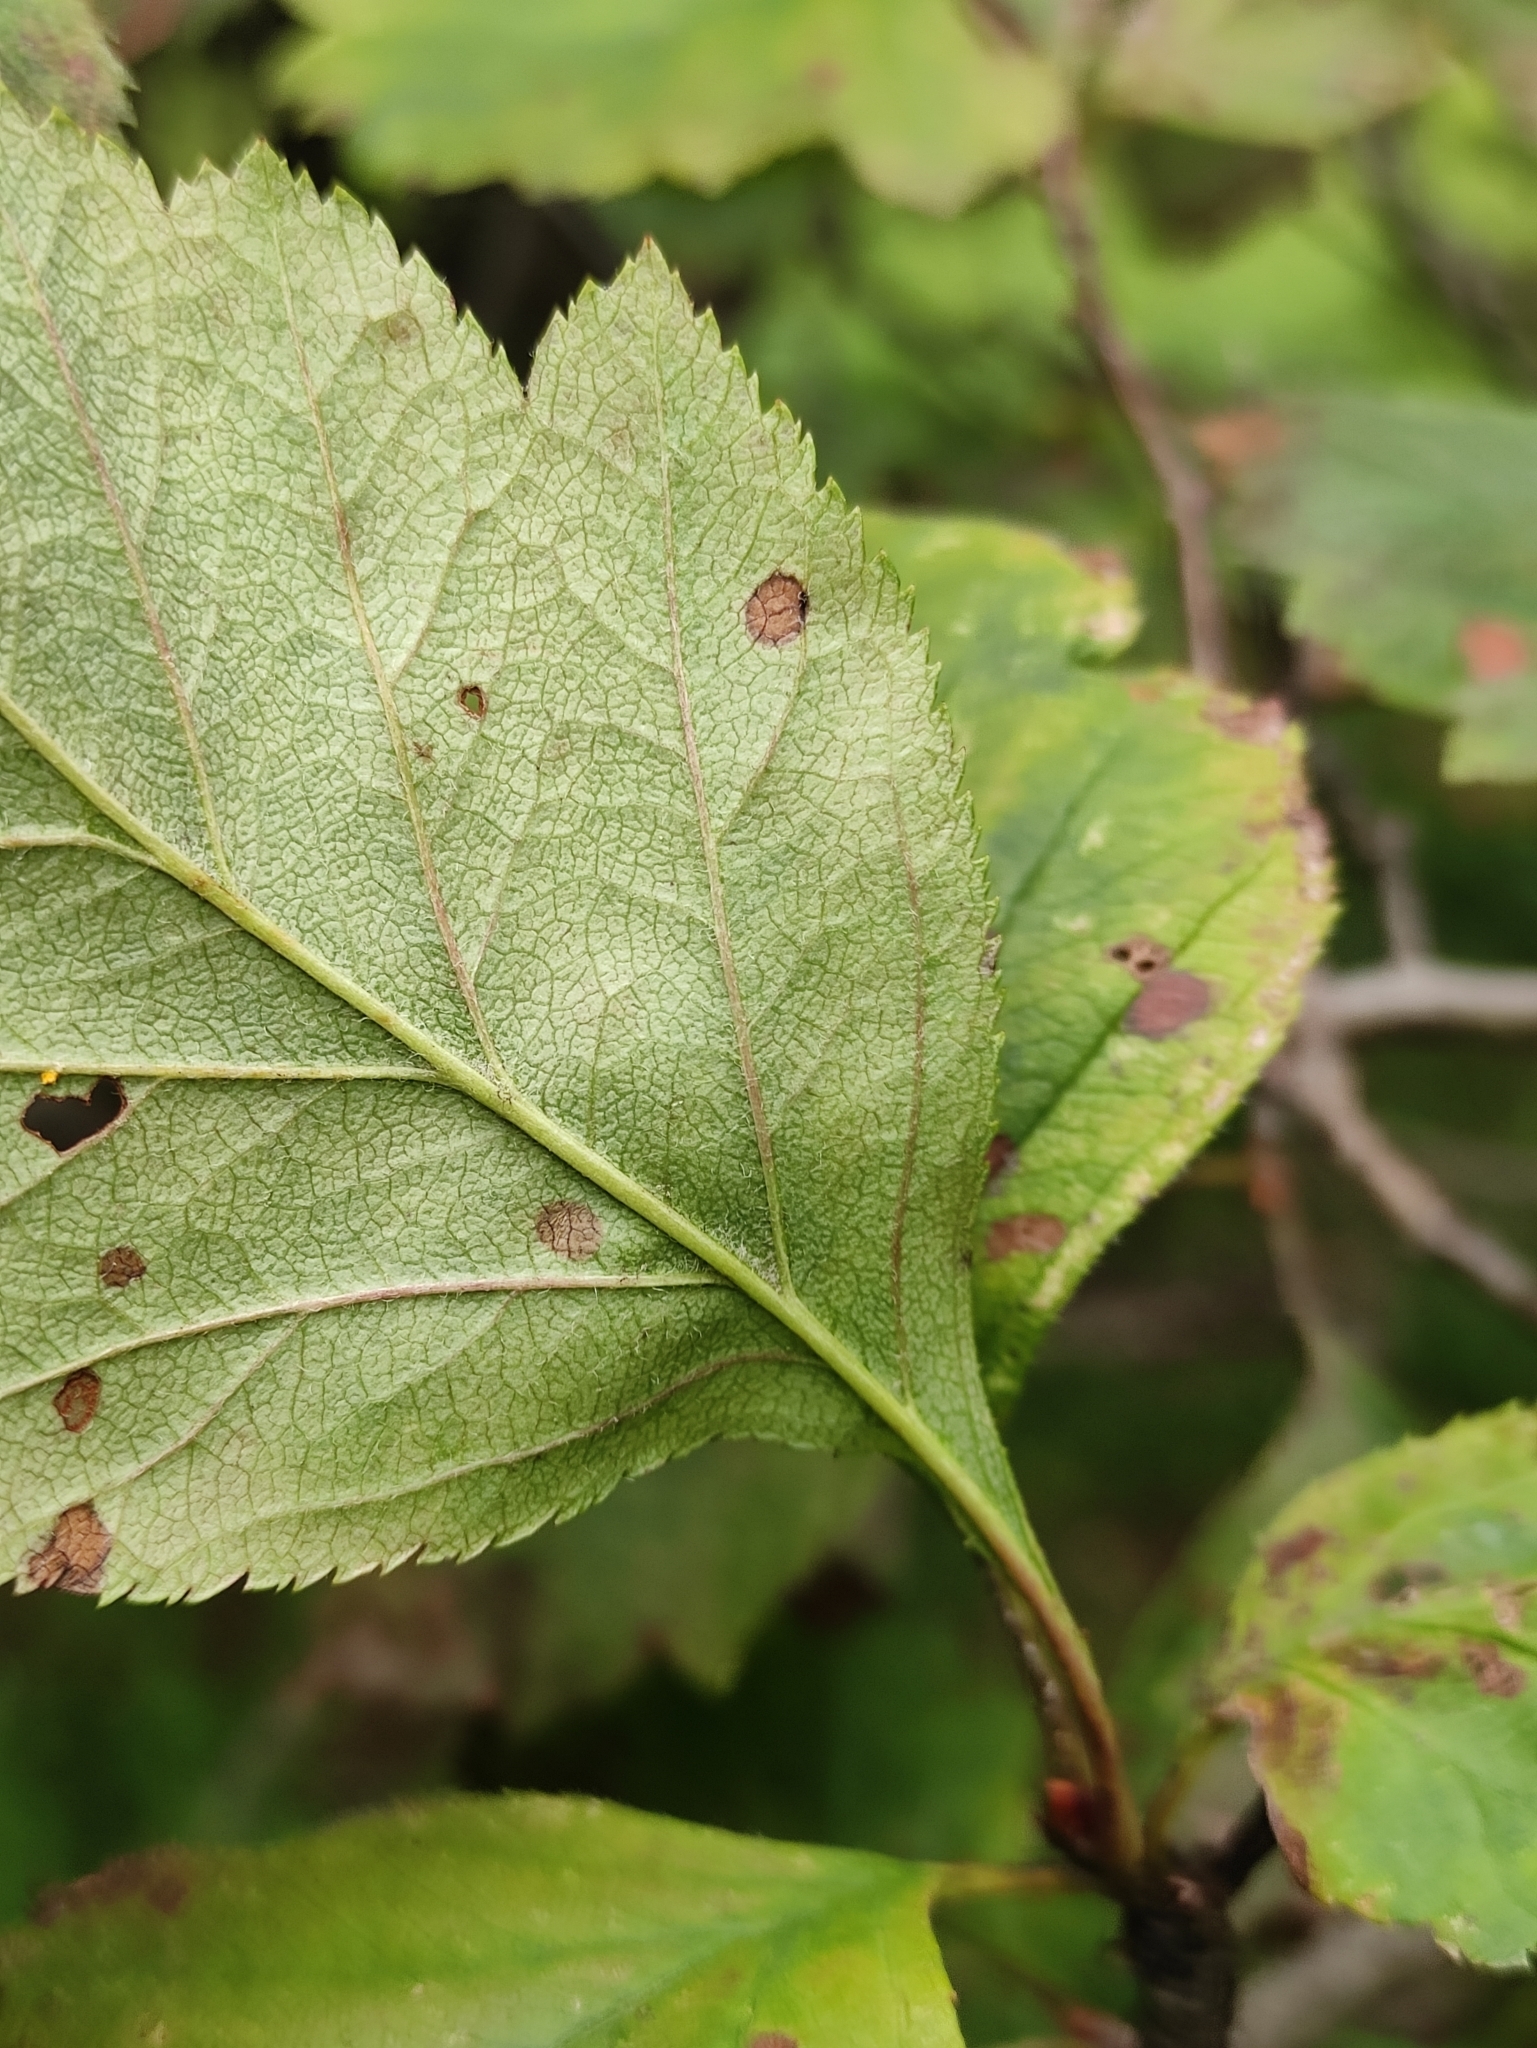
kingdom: Plantae
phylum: Tracheophyta
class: Magnoliopsida
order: Rosales
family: Rosaceae
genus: Crataegus
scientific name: Crataegus sanguinea
